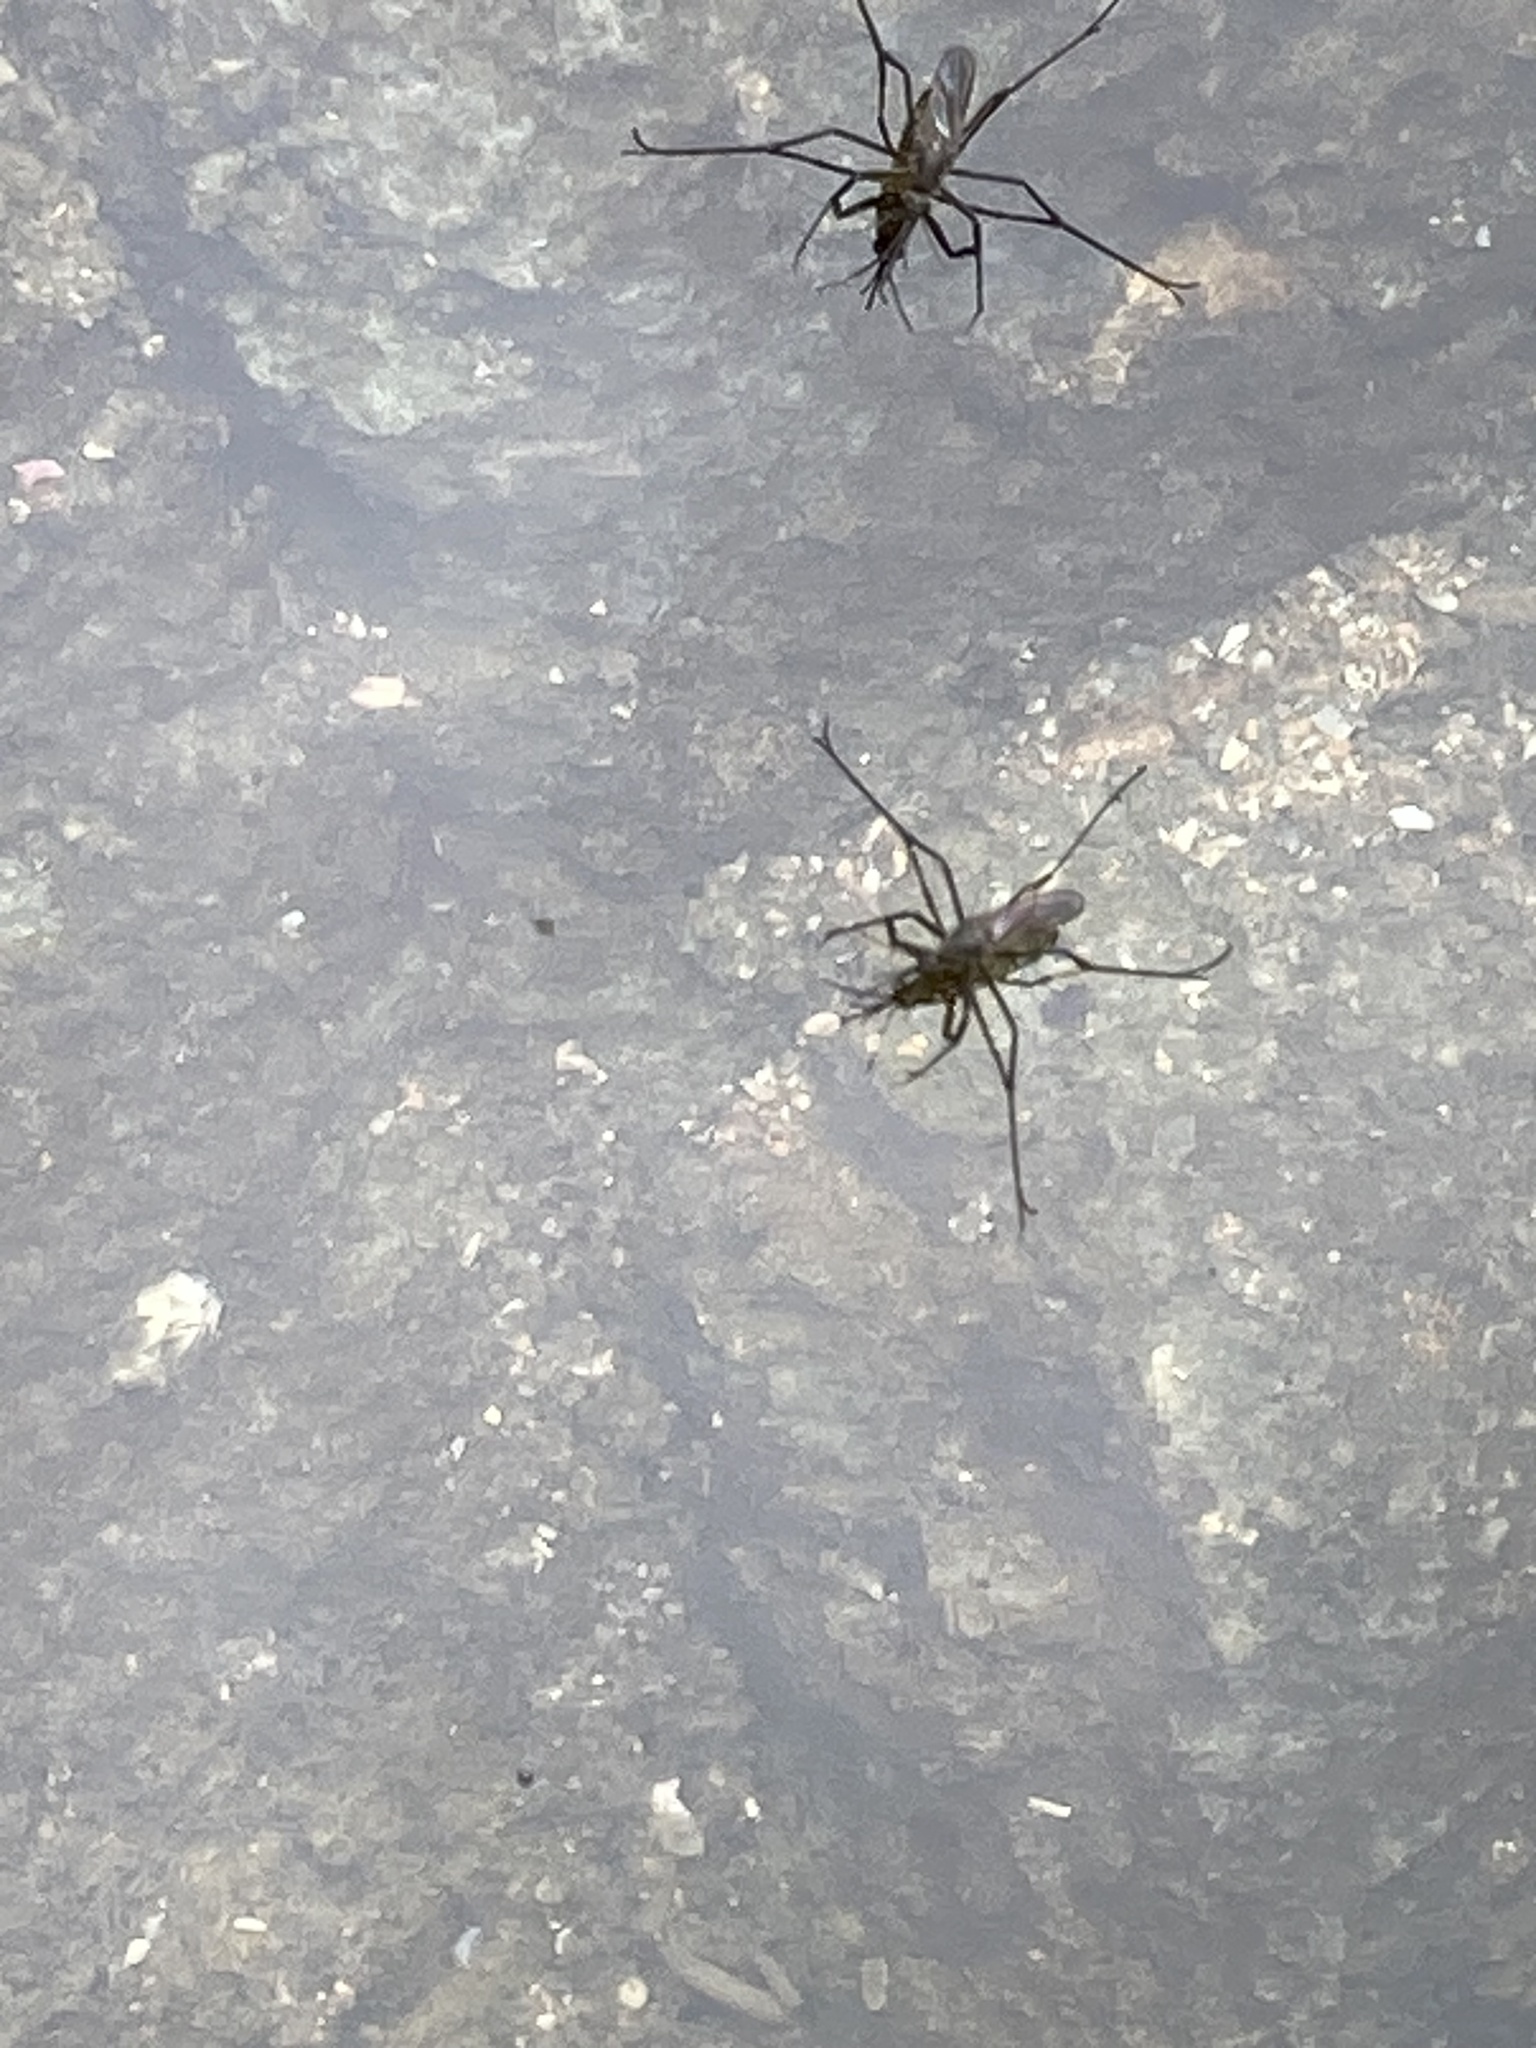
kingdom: Animalia
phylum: Arthropoda
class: Insecta
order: Diptera
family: Culicidae
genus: Opifex
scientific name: Opifex fuscus
